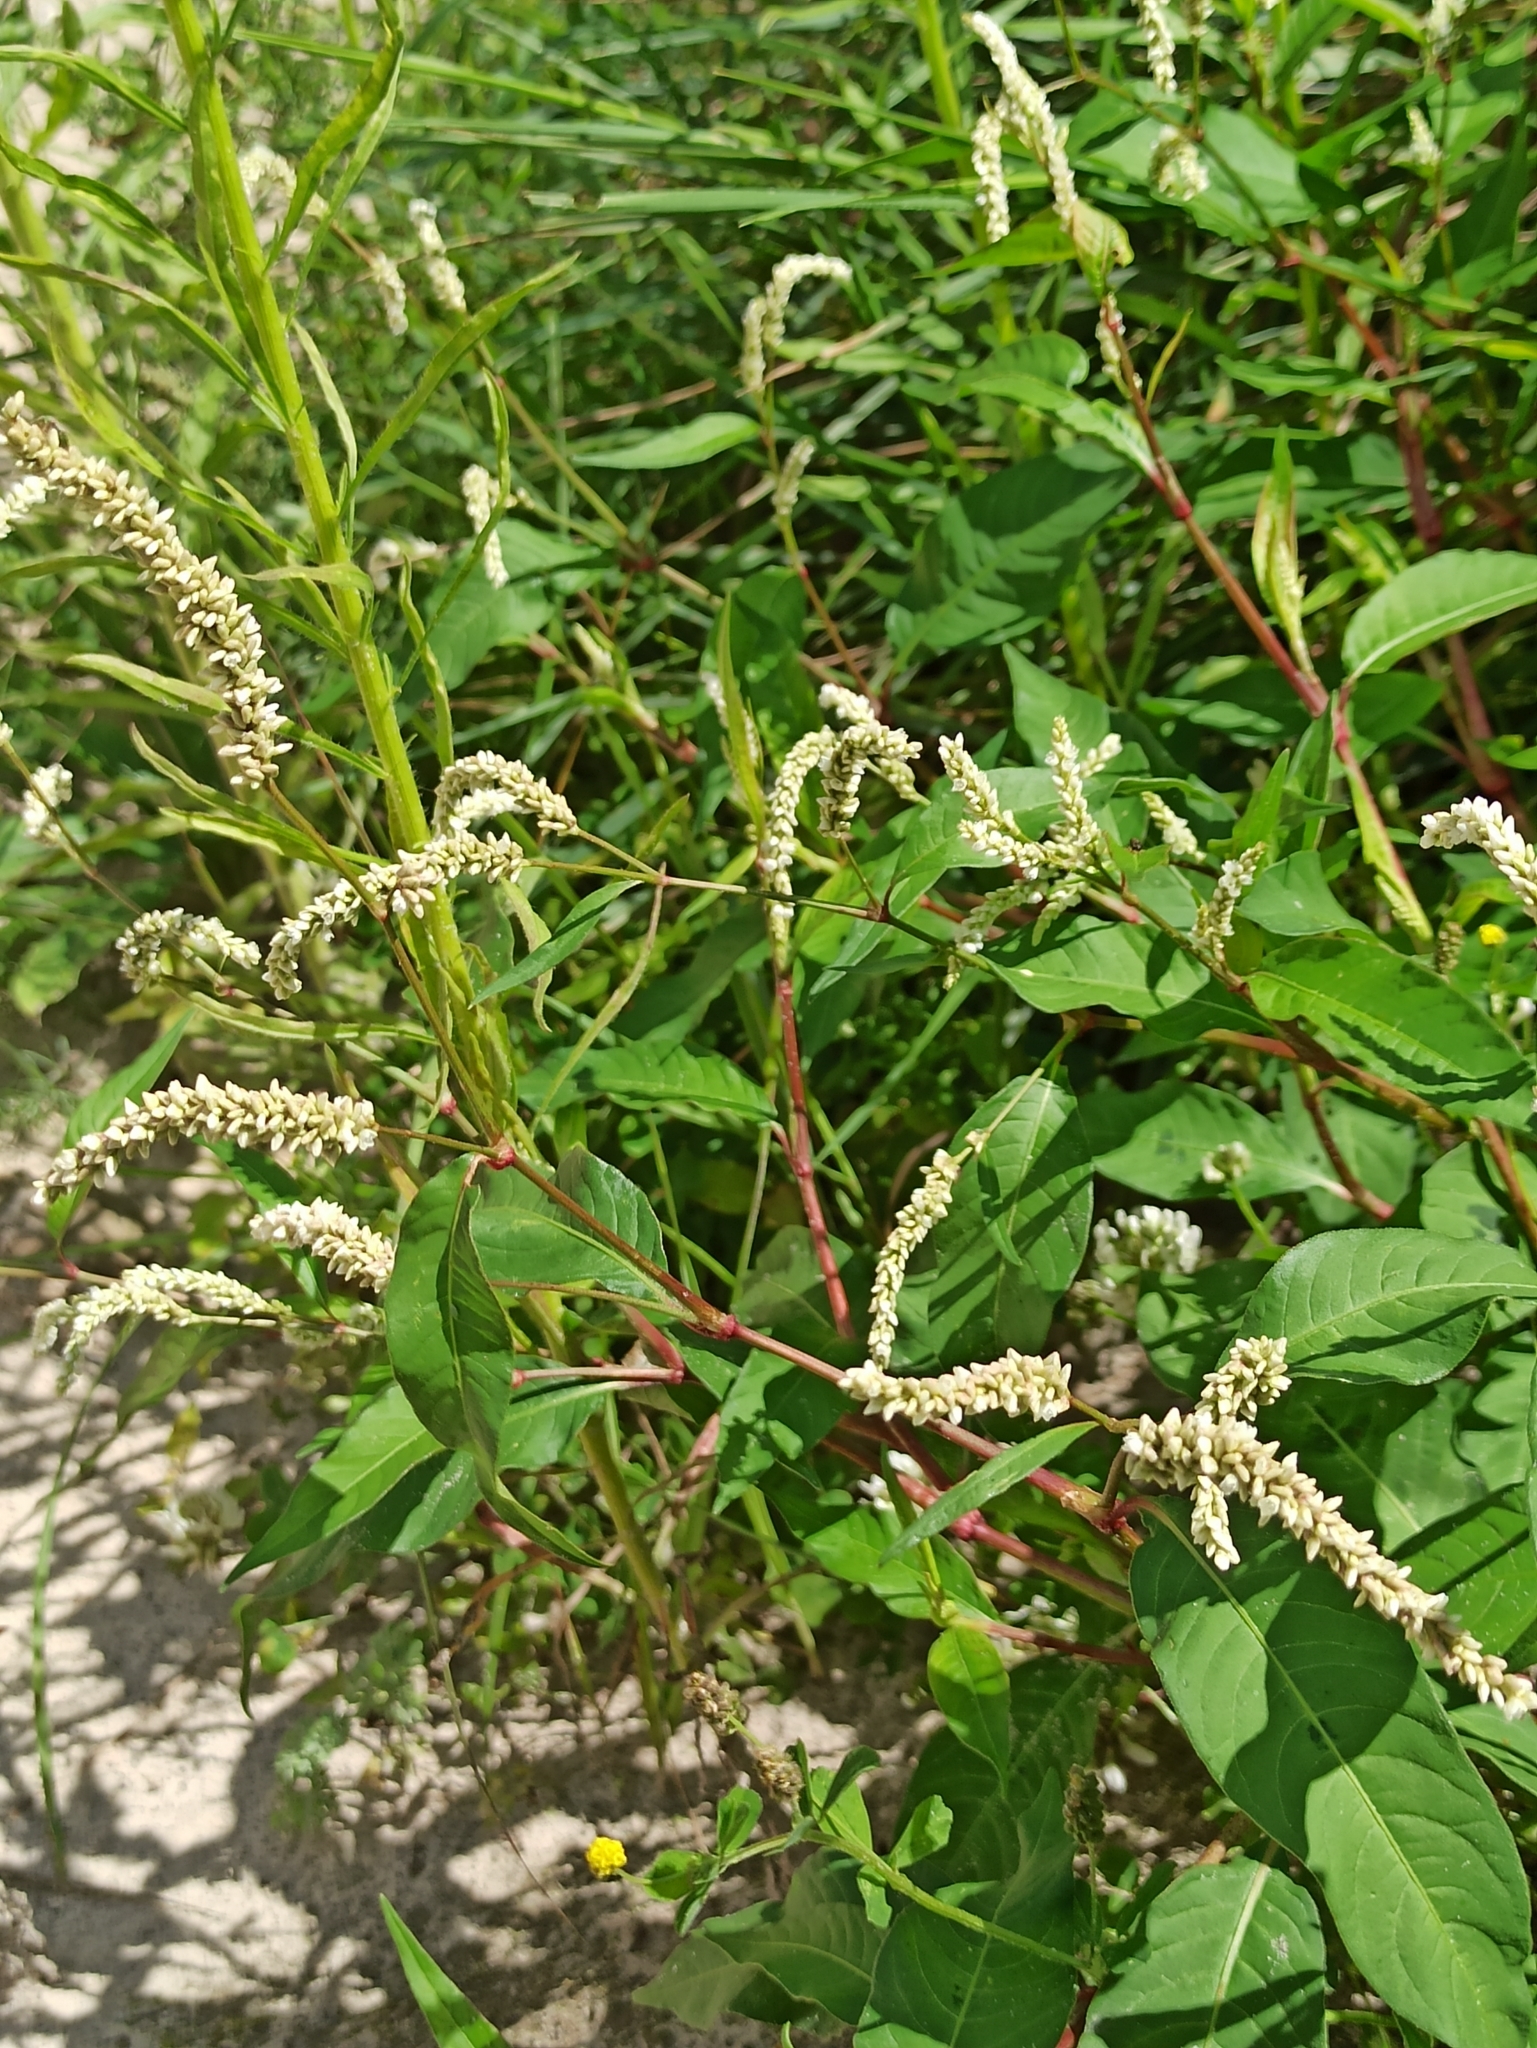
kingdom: Plantae
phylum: Tracheophyta
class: Magnoliopsida
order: Caryophyllales
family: Polygonaceae
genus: Persicaria
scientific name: Persicaria lapathifolia
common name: Curlytop knotweed
